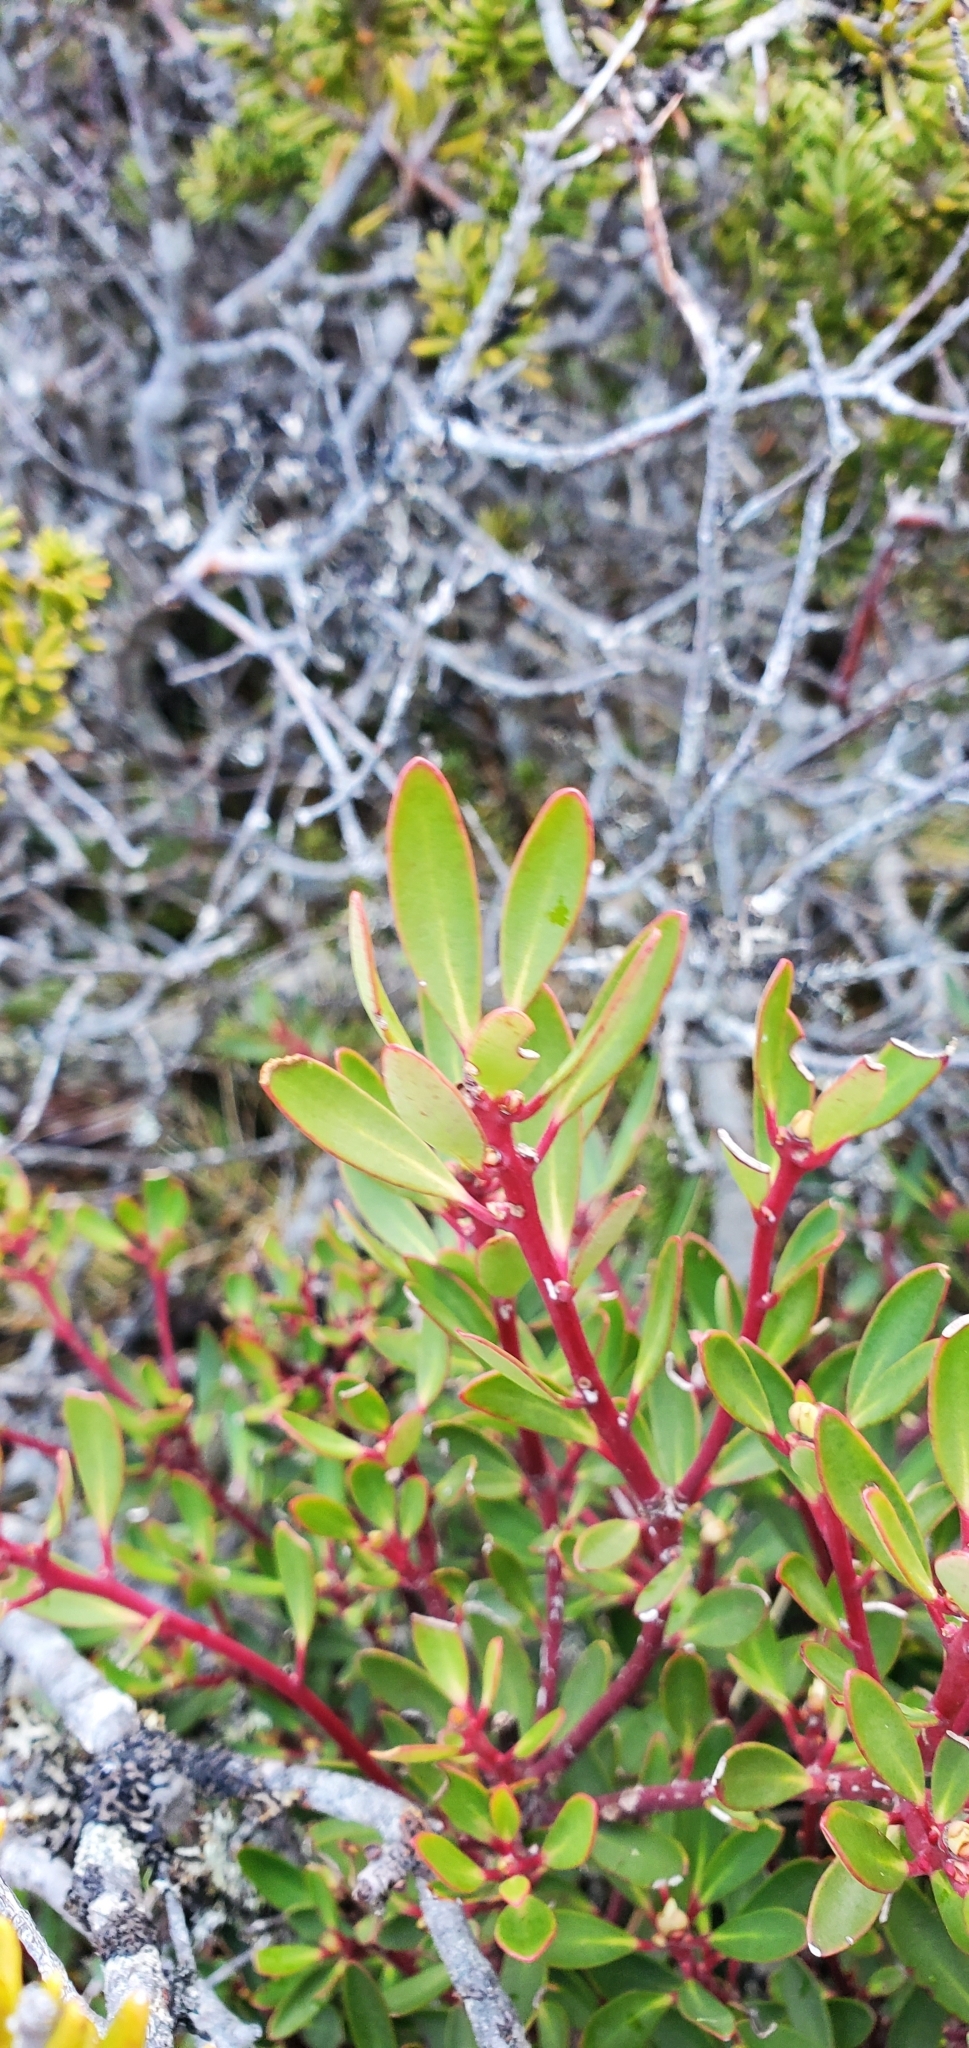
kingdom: Plantae
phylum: Tracheophyta
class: Magnoliopsida
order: Canellales
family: Winteraceae
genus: Drimys
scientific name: Drimys aromatica
